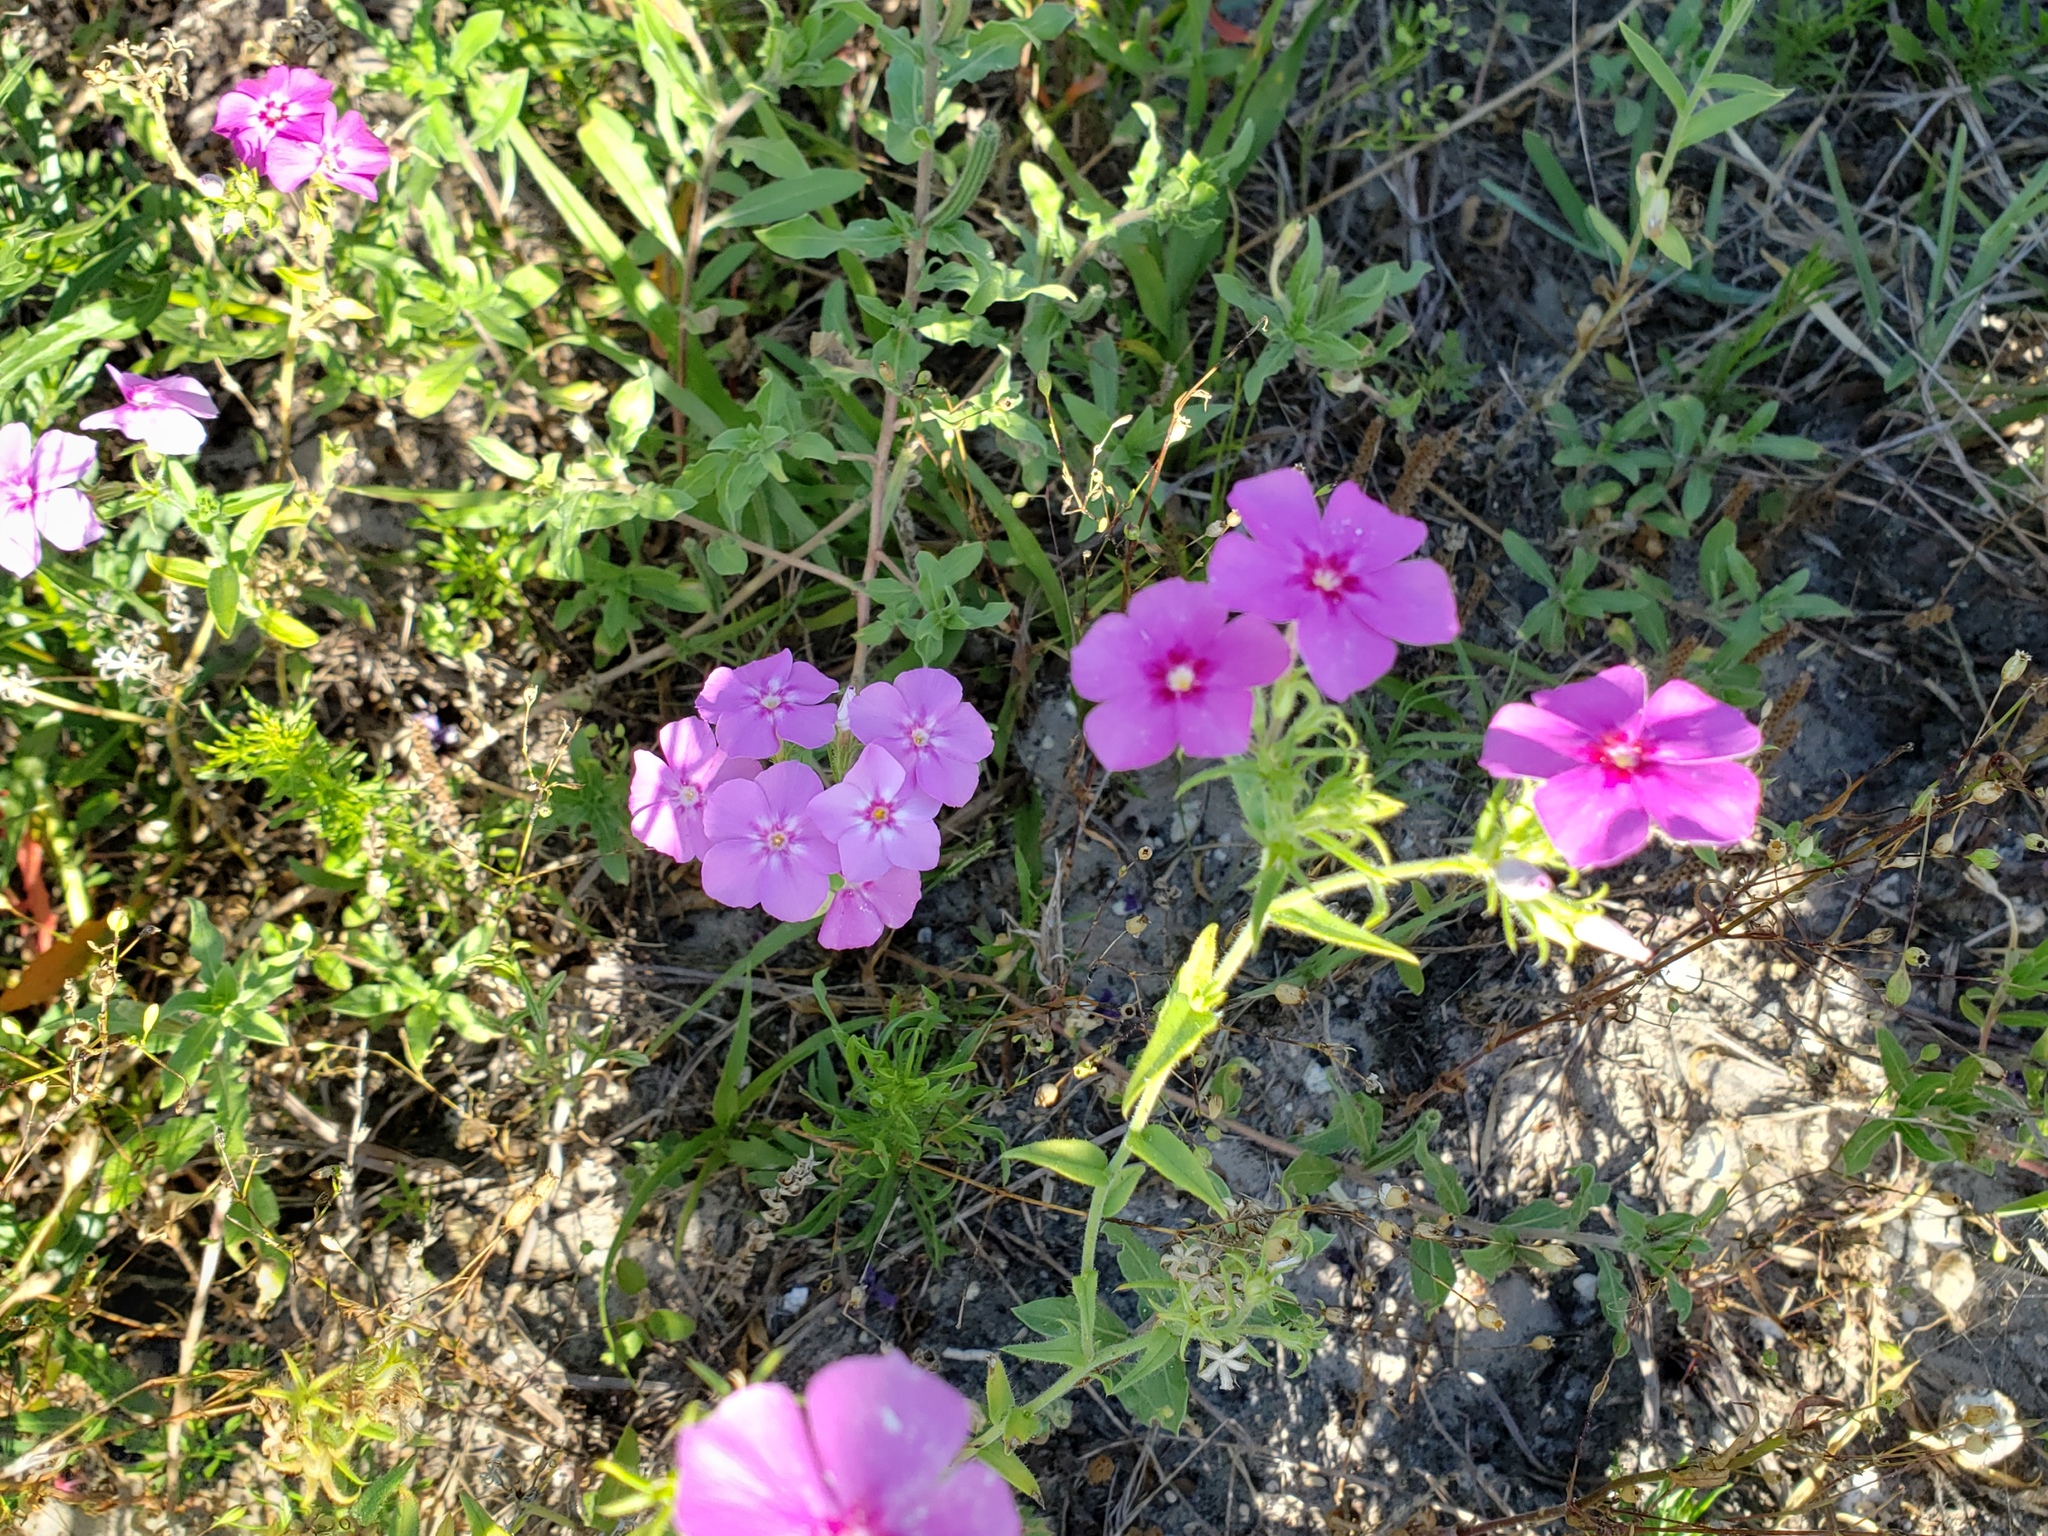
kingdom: Plantae
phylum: Tracheophyta
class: Magnoliopsida
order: Ericales
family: Polemoniaceae
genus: Phlox
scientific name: Phlox drummondii
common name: Drummond's phlox
